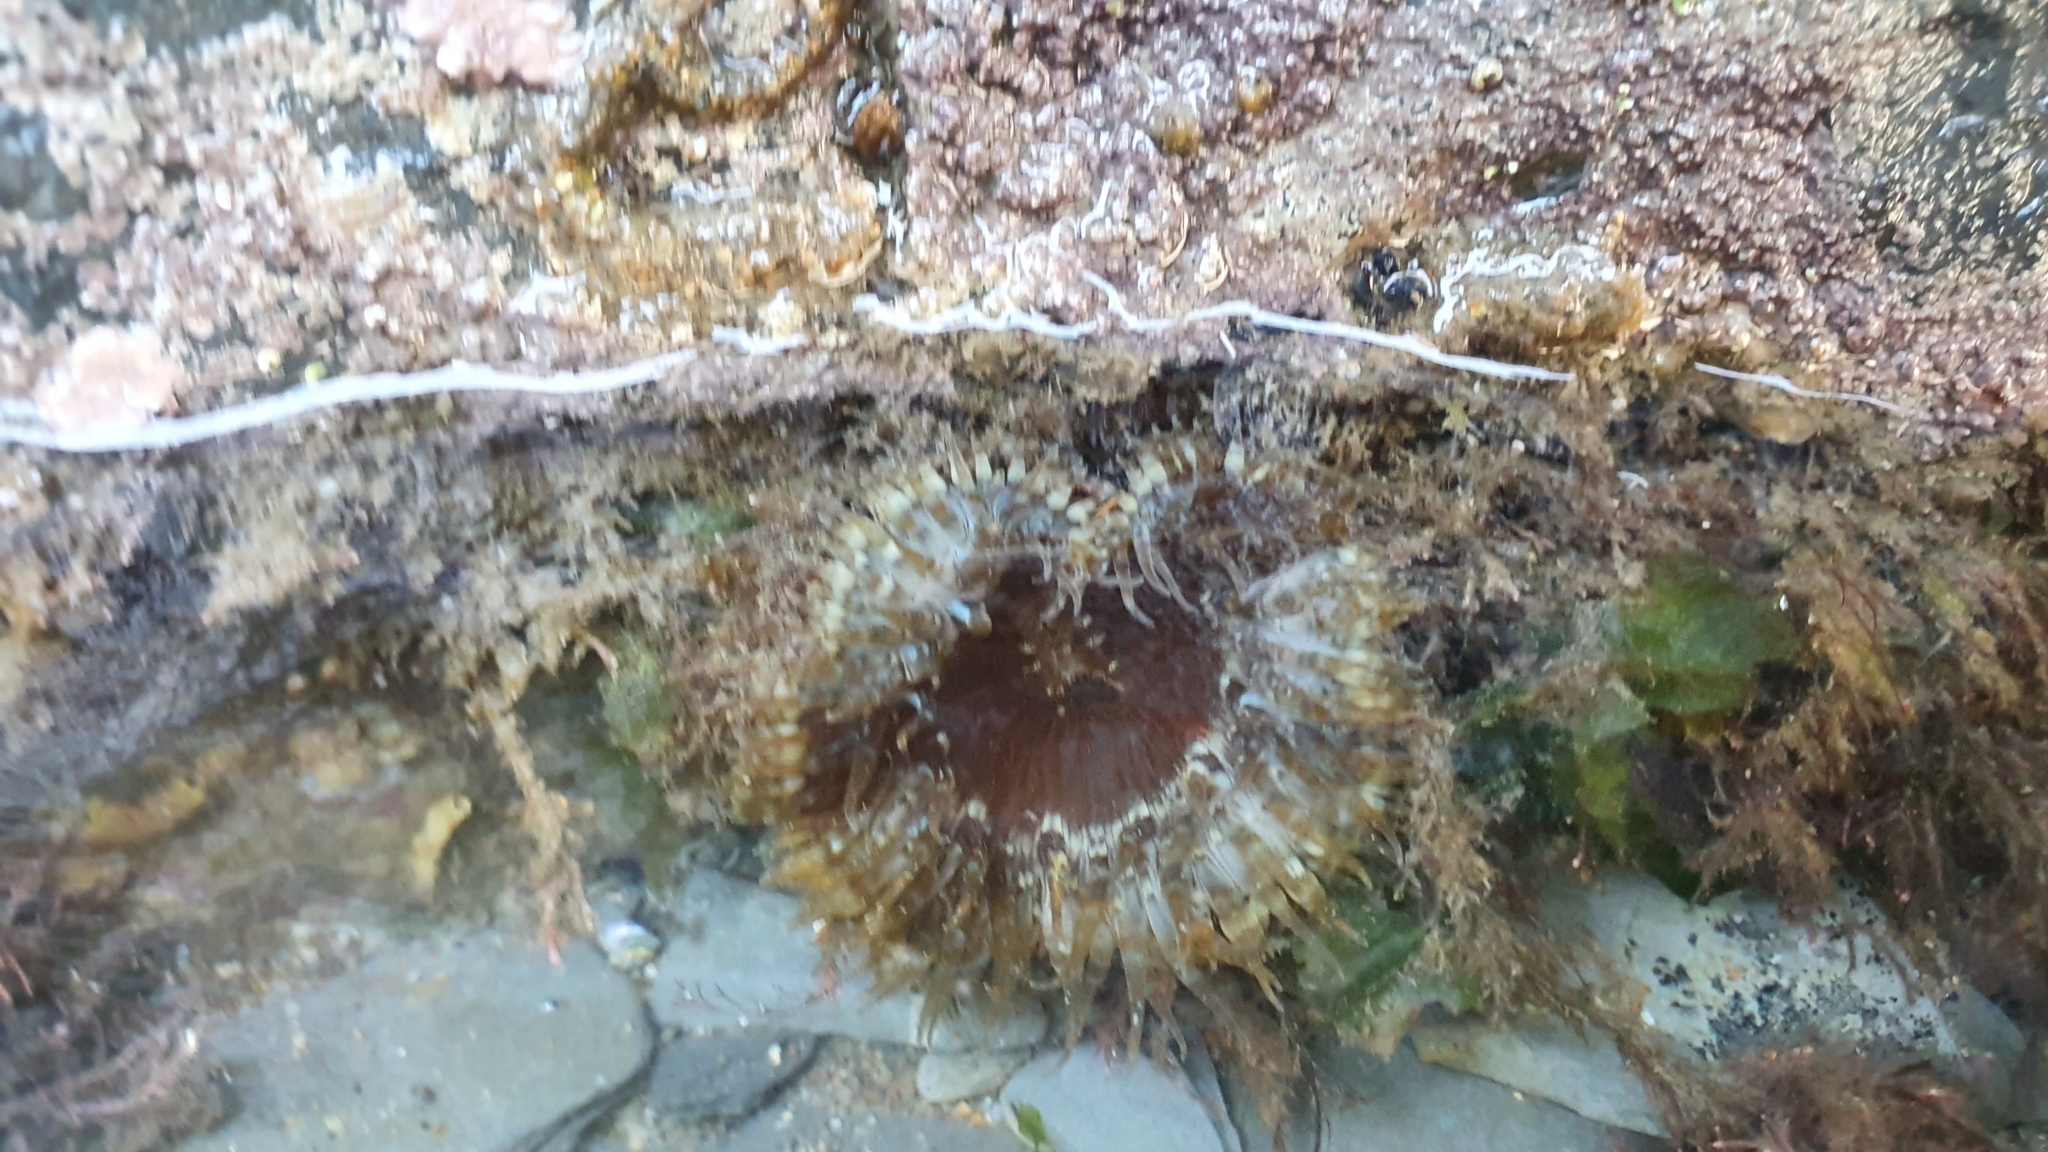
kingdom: Animalia
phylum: Cnidaria
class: Anthozoa
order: Actiniaria
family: Sagartiidae
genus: Cereus
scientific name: Cereus pedunculatus
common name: Daisy anemone
